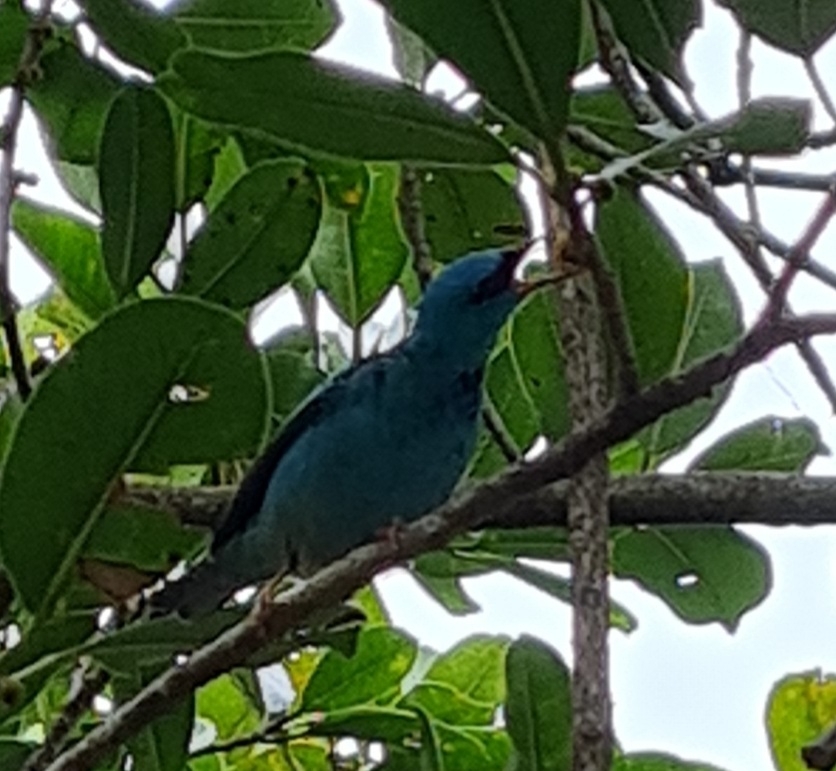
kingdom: Animalia
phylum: Chordata
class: Aves
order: Passeriformes
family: Thraupidae
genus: Dacnis
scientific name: Dacnis cayana
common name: Blue dacnis
